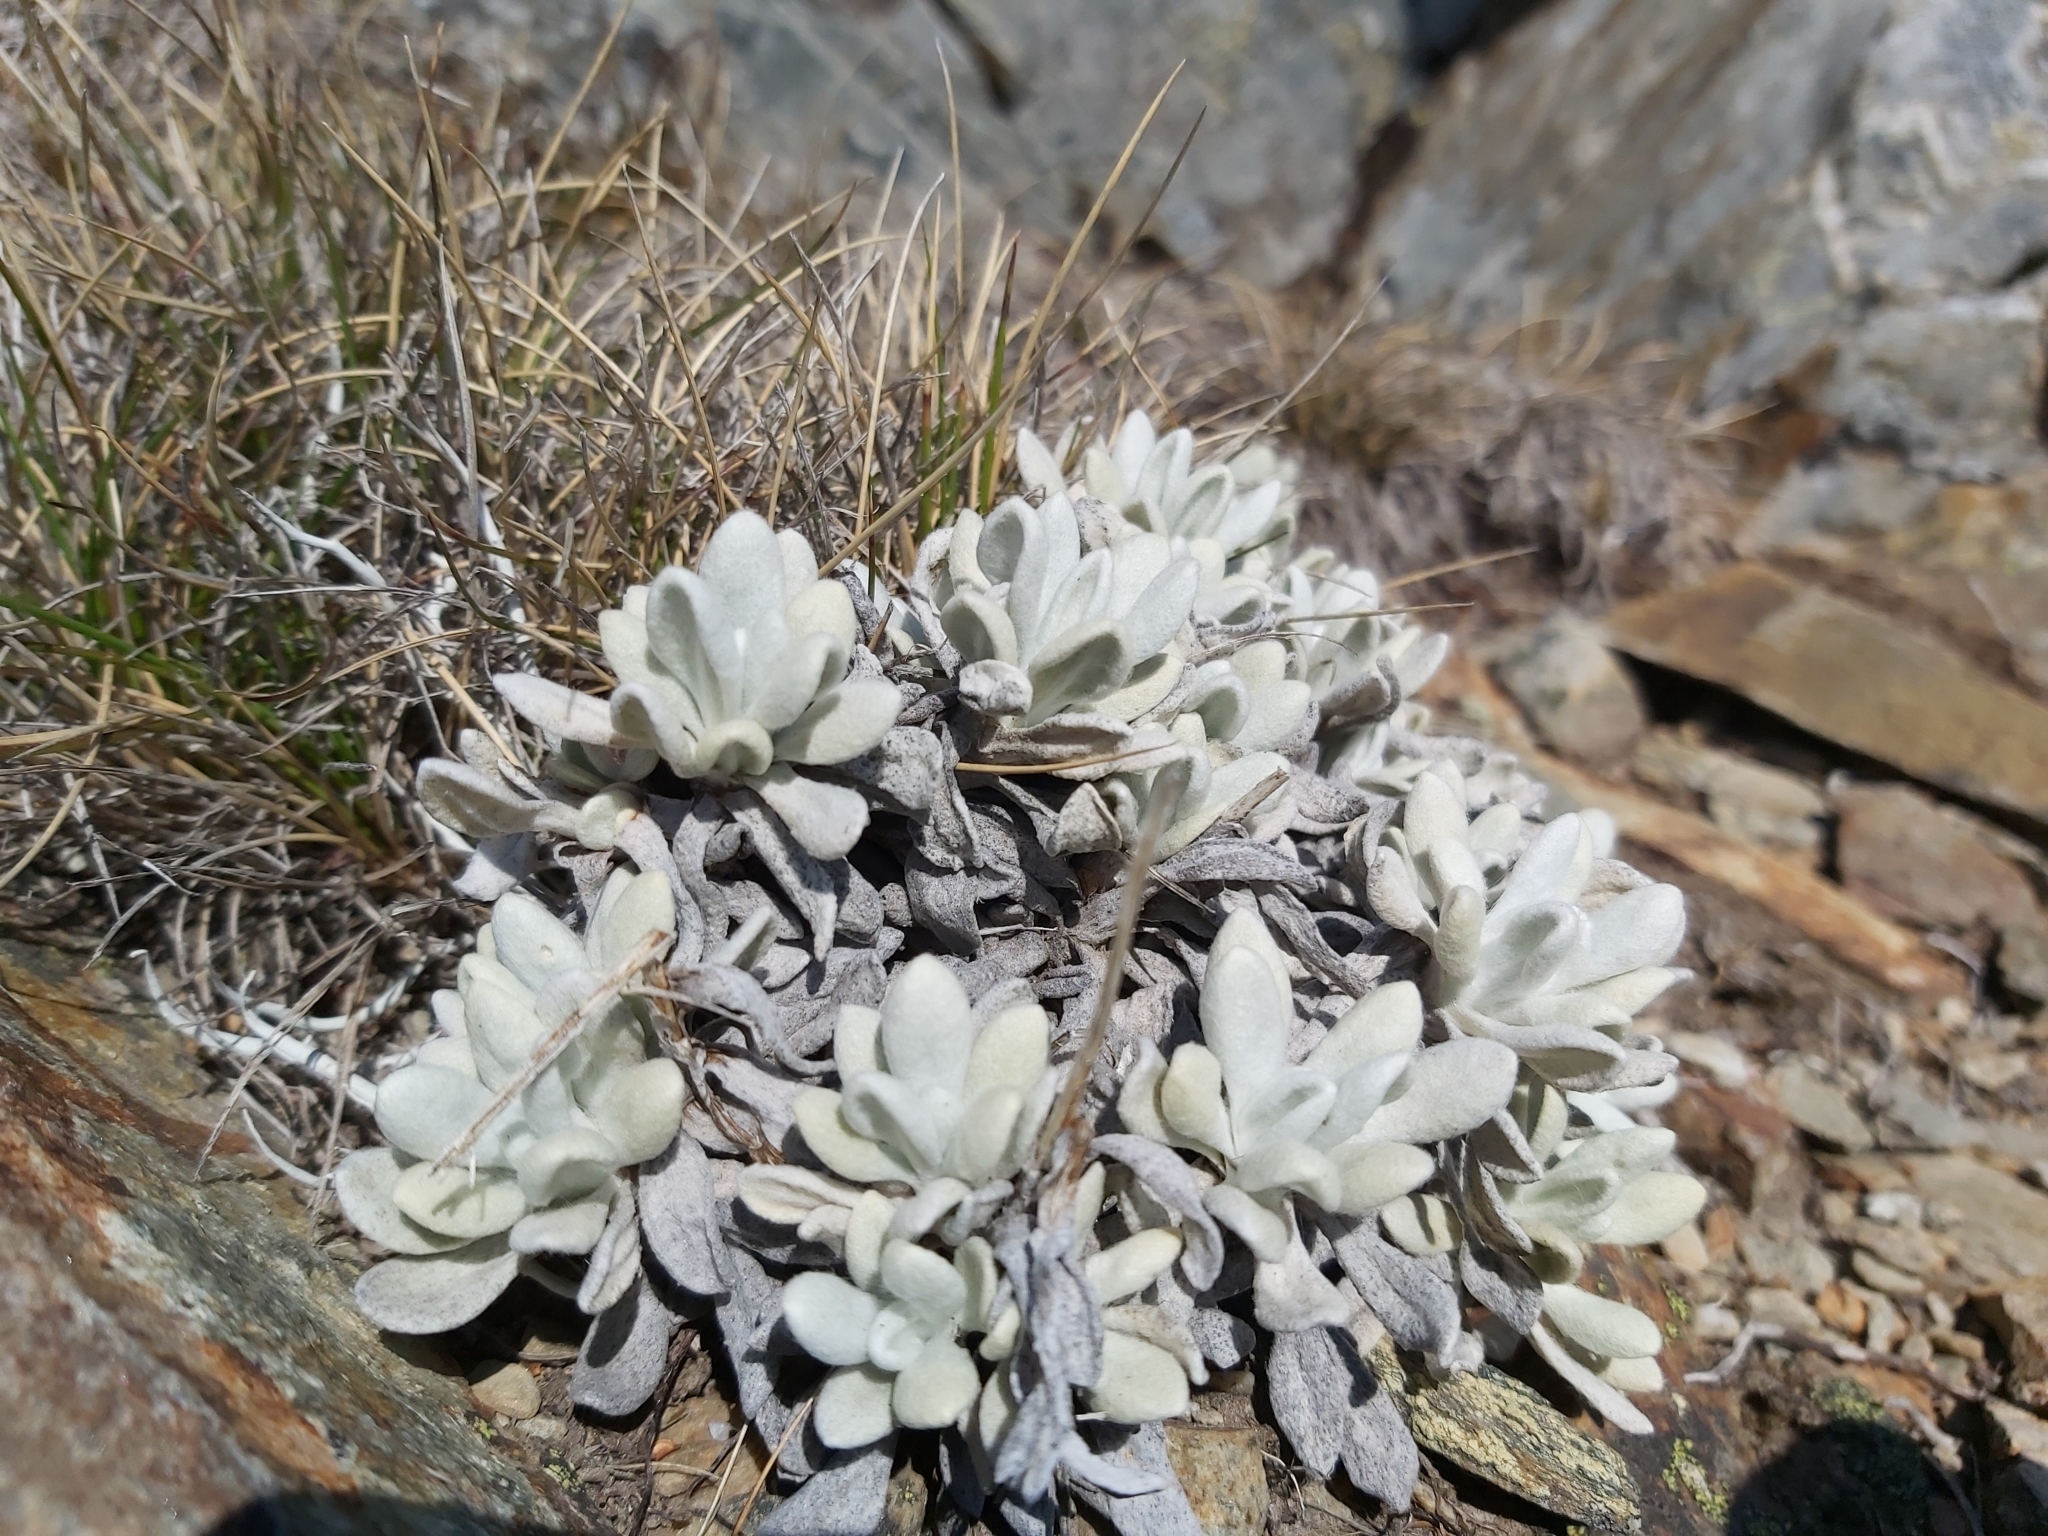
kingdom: Plantae
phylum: Tracheophyta
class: Magnoliopsida
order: Asterales
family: Asteraceae
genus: Leucochrysum
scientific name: Leucochrysum alpinum
